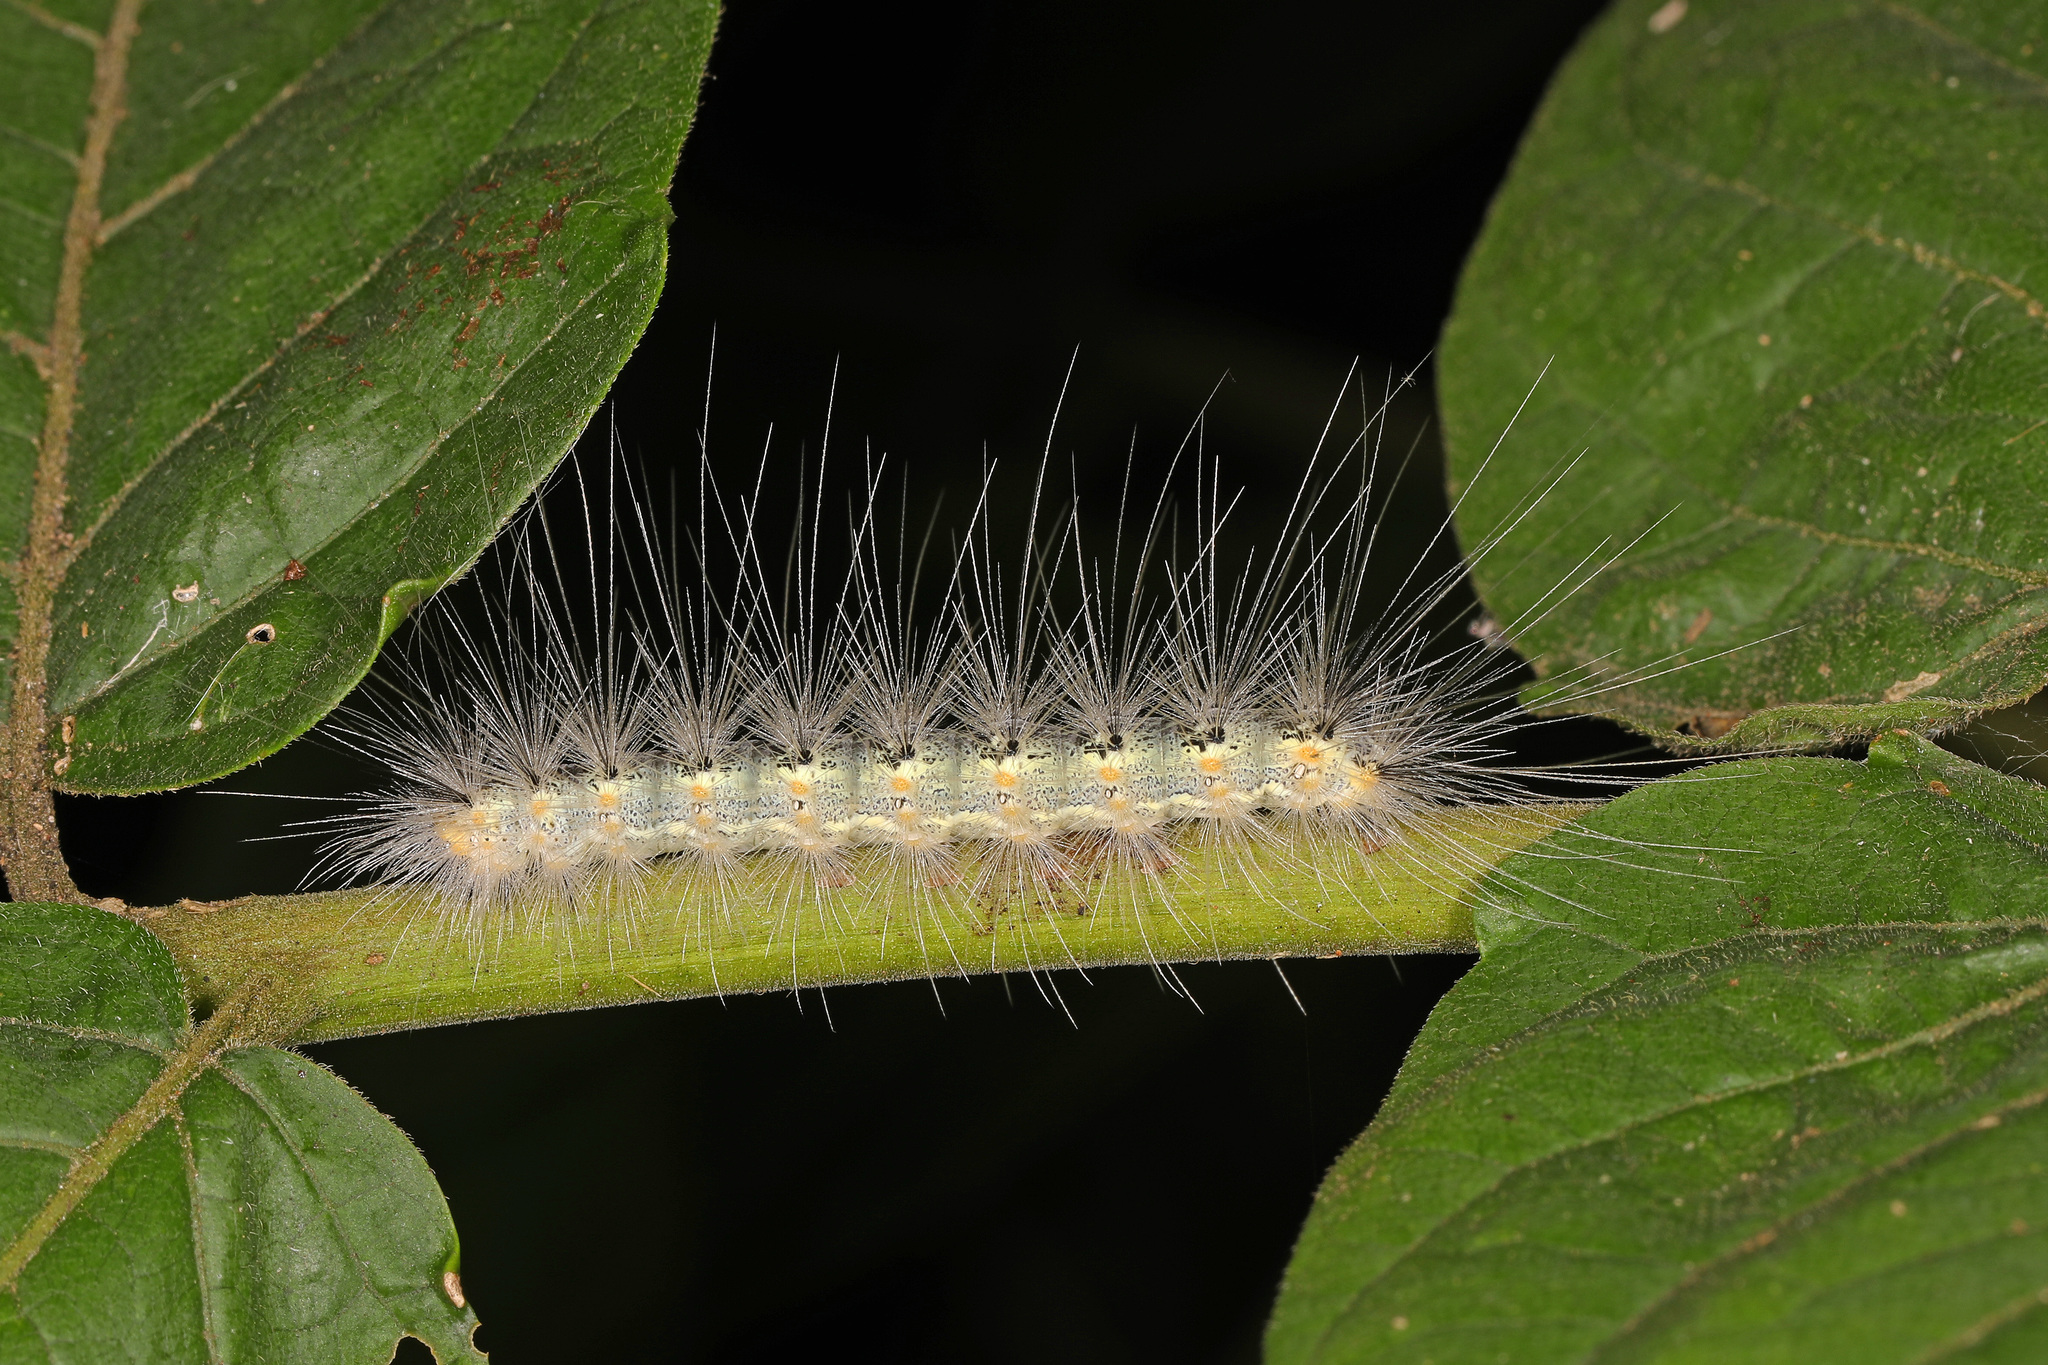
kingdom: Animalia
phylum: Arthropoda
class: Insecta
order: Lepidoptera
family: Erebidae
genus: Hyphantria
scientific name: Hyphantria cunea
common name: American white moth
